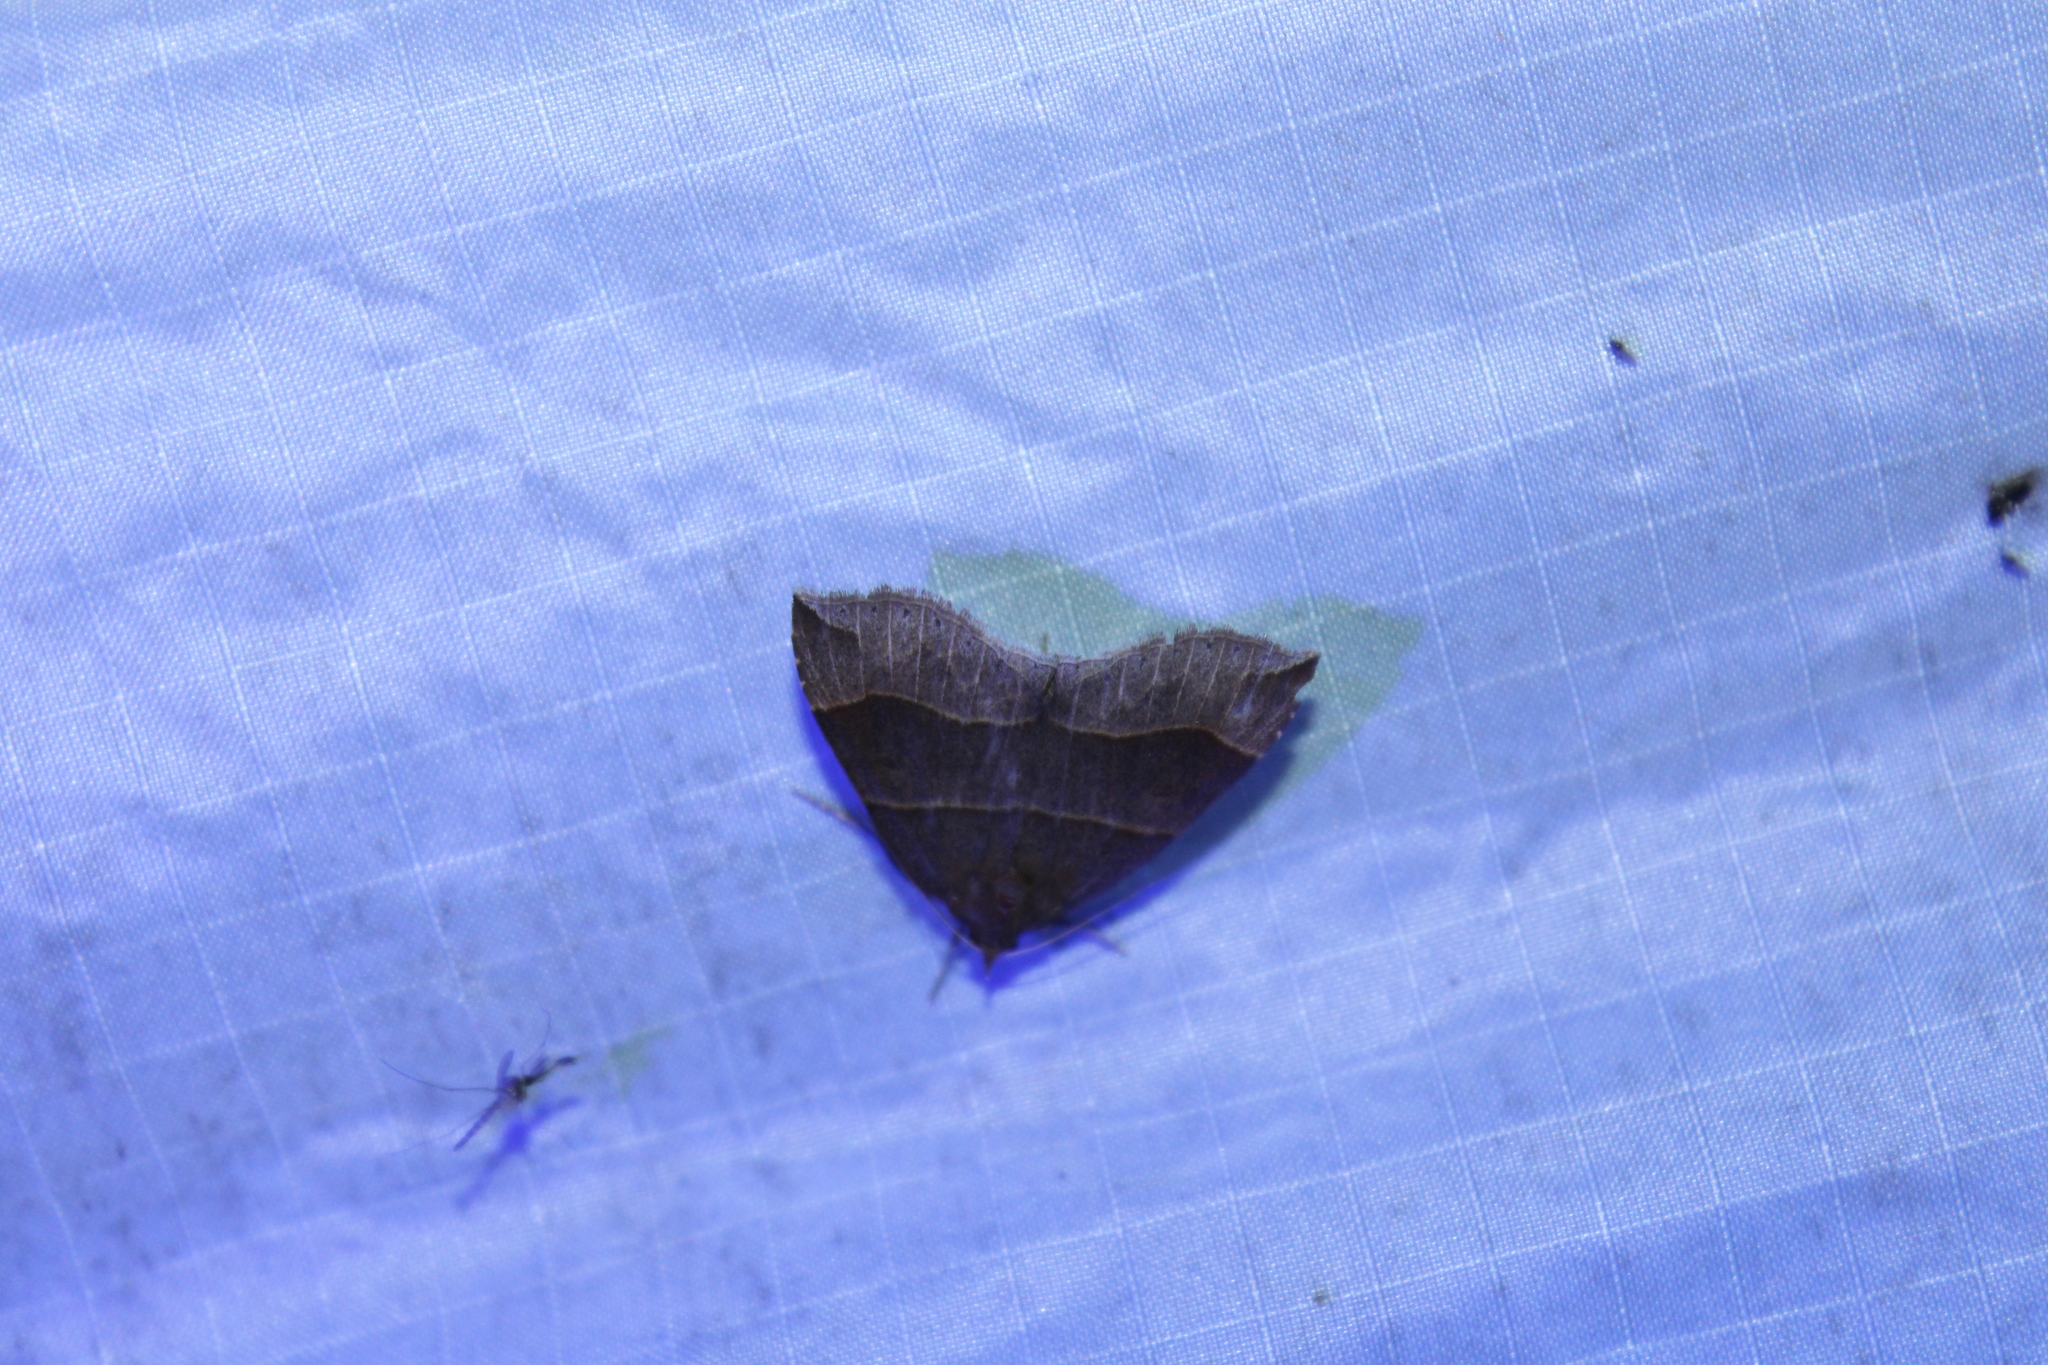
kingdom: Animalia
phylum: Arthropoda
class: Insecta
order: Lepidoptera
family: Erebidae
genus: Parallelia
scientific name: Parallelia bistriaris
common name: Maple looper moth
